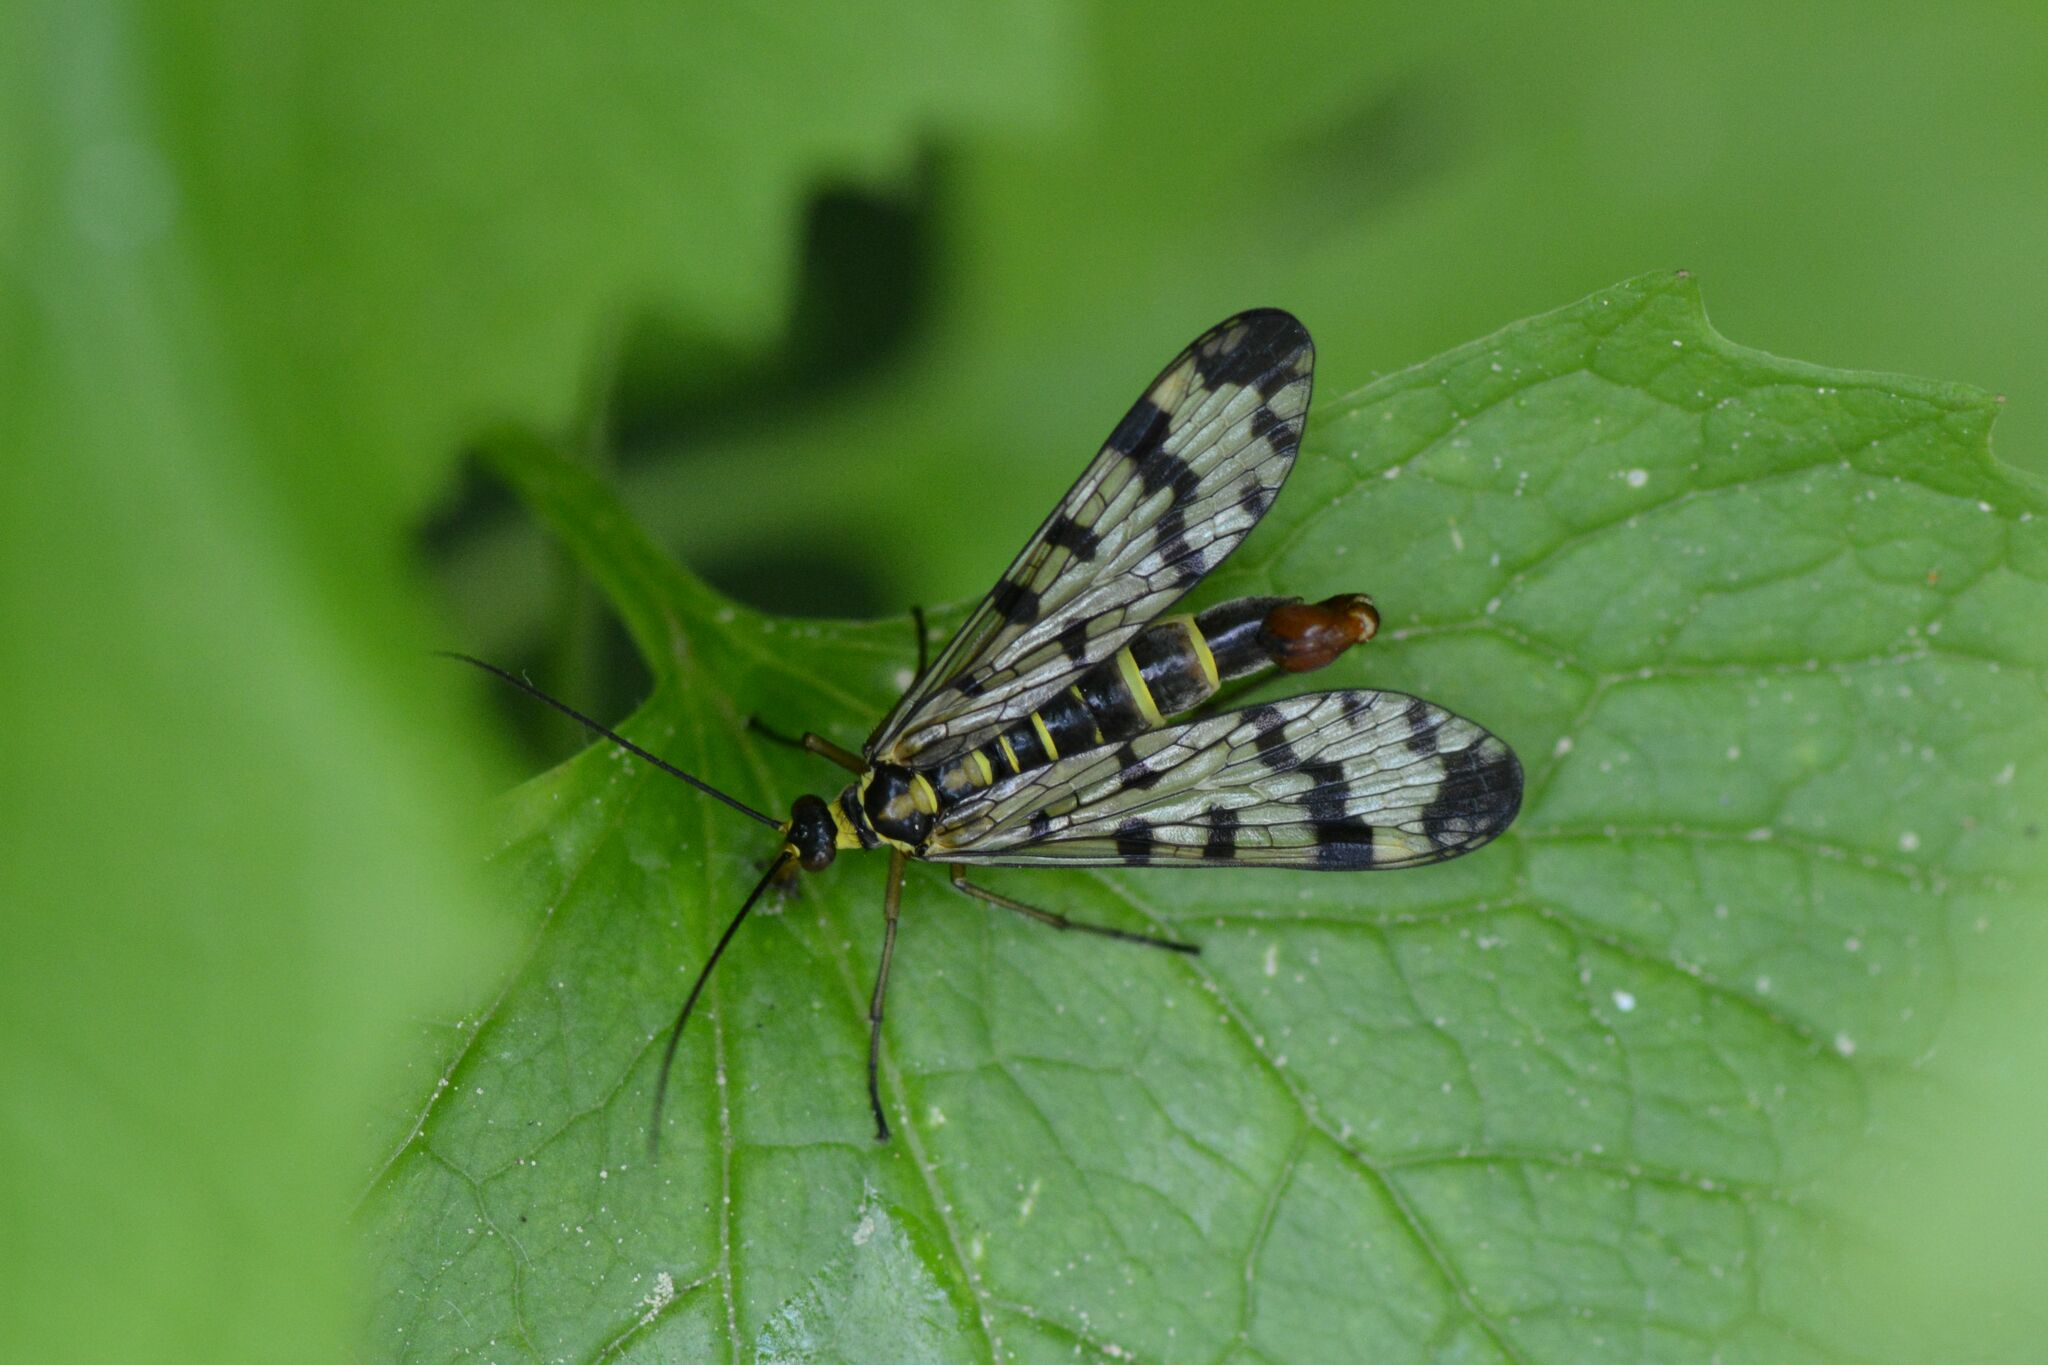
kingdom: Animalia
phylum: Arthropoda
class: Insecta
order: Mecoptera
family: Panorpidae
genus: Panorpa
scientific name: Panorpa communis
